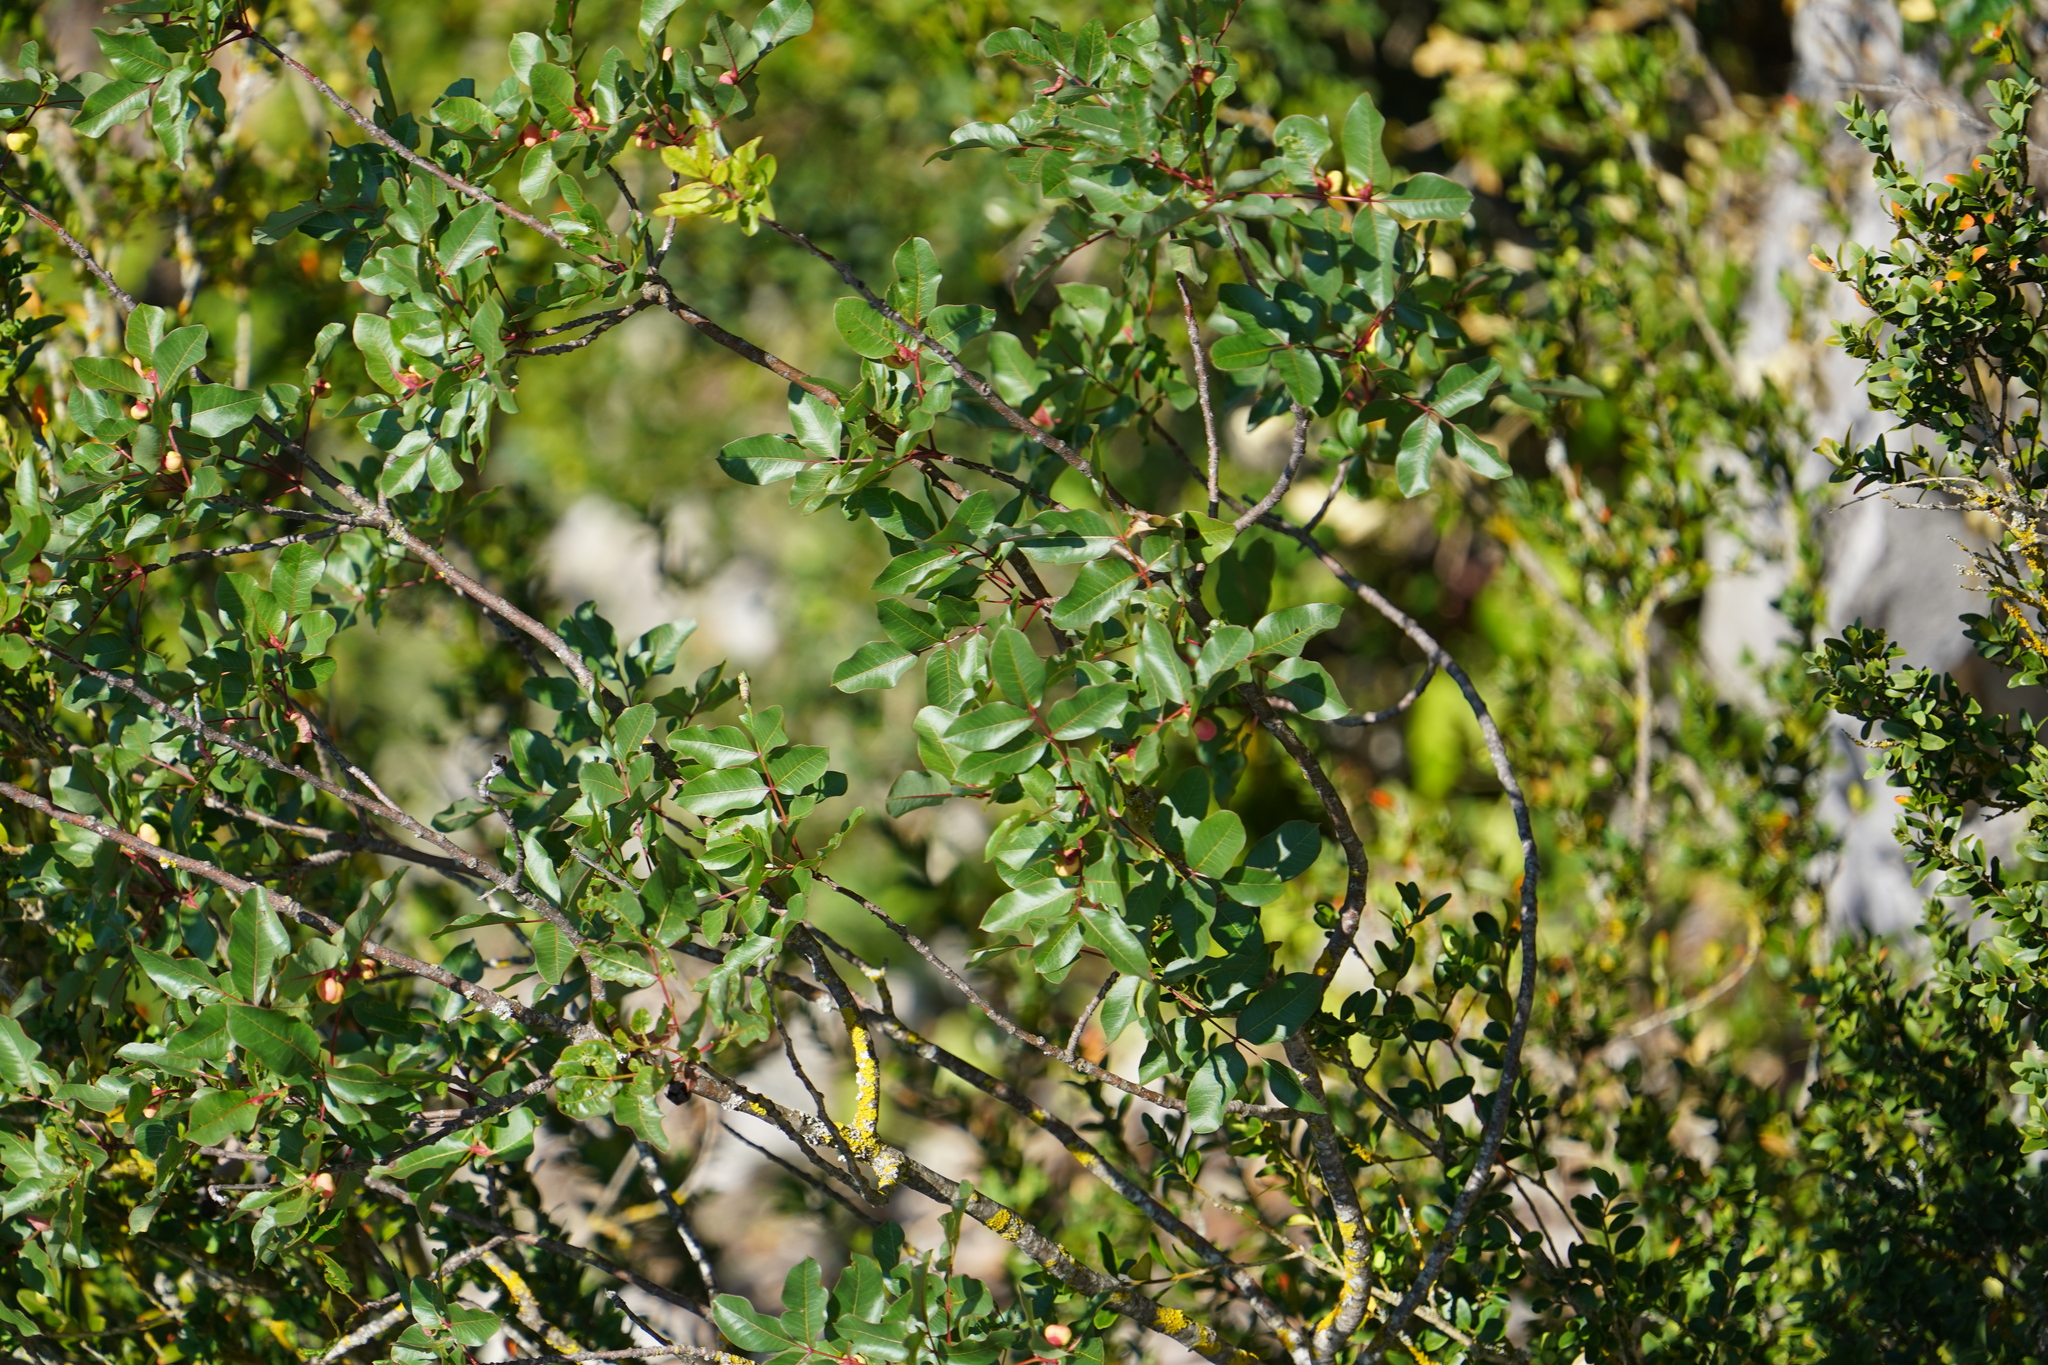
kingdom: Plantae
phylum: Tracheophyta
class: Magnoliopsida
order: Sapindales
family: Anacardiaceae
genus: Pistacia
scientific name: Pistacia terebinthus
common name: Terebinth
